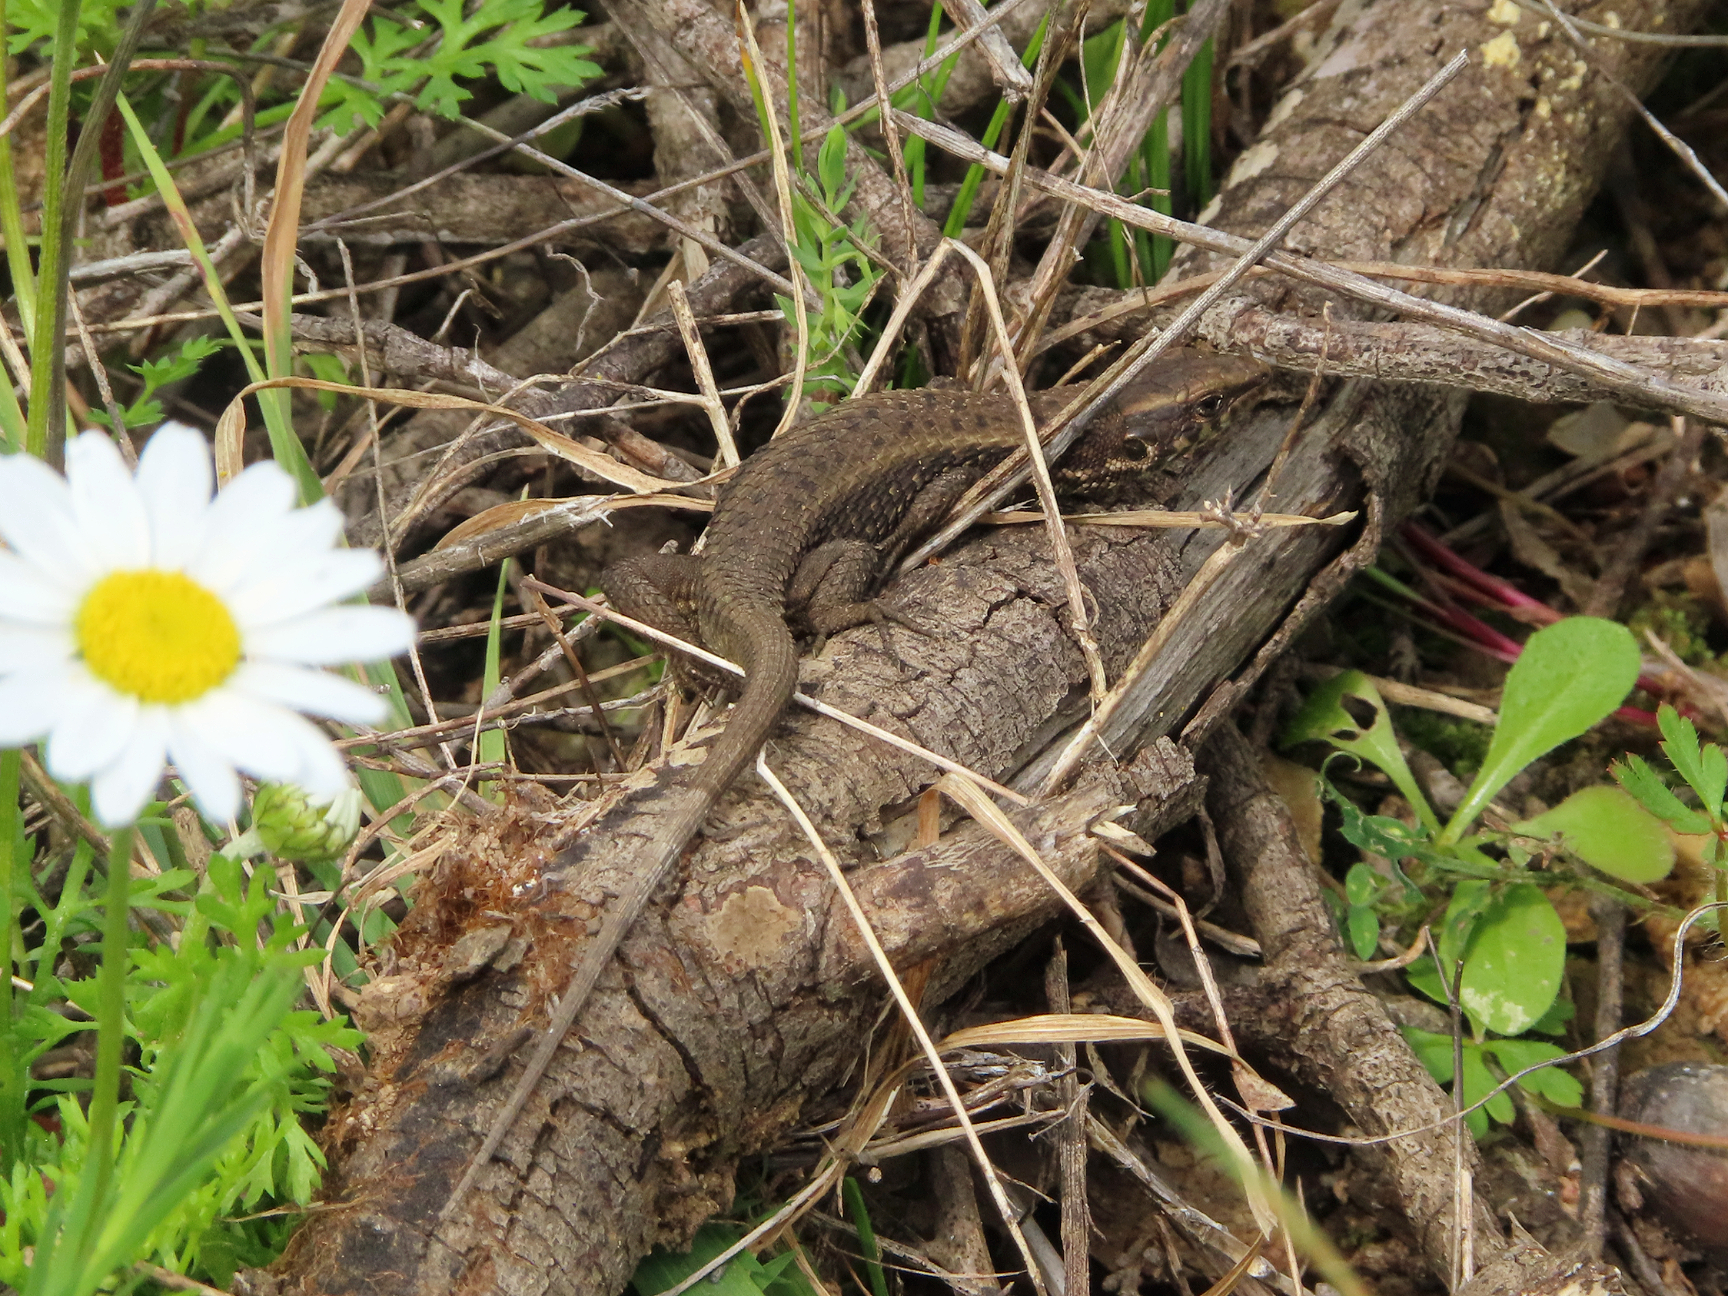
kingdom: Animalia
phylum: Chordata
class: Squamata
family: Lacertidae
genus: Algyroides
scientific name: Algyroides moreoticus
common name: Greek algyroides
